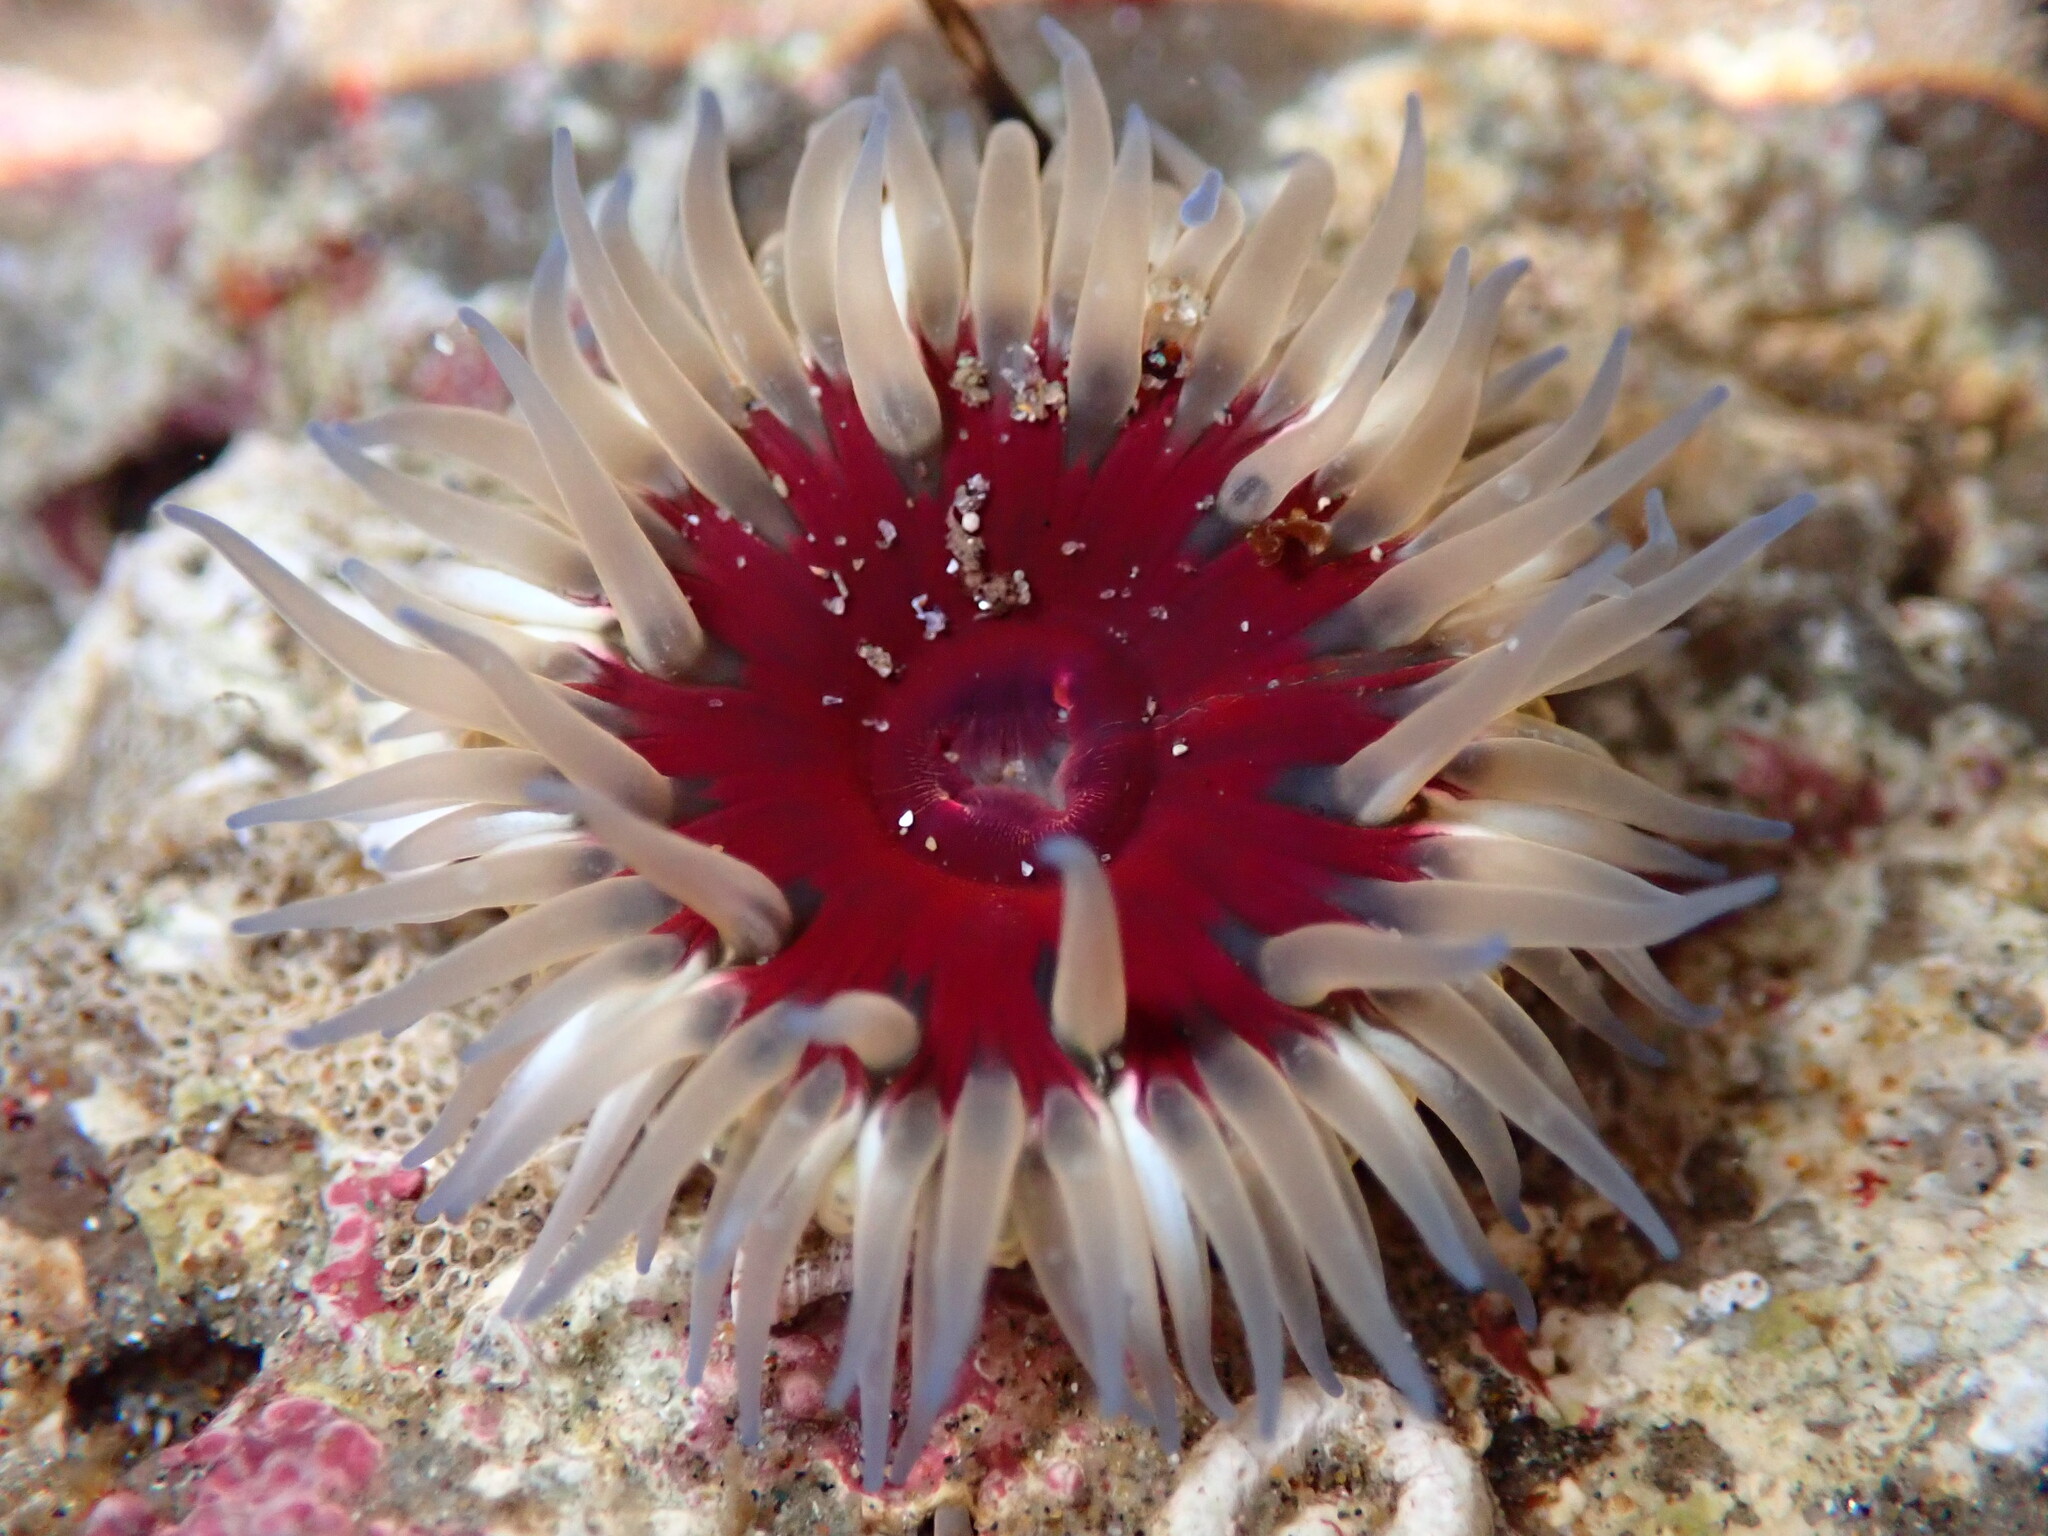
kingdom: Animalia
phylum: Cnidaria
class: Anthozoa
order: Actiniaria
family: Actiniidae
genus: Anthopleura
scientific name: Anthopleura artemisia
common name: Buried sea anemone
